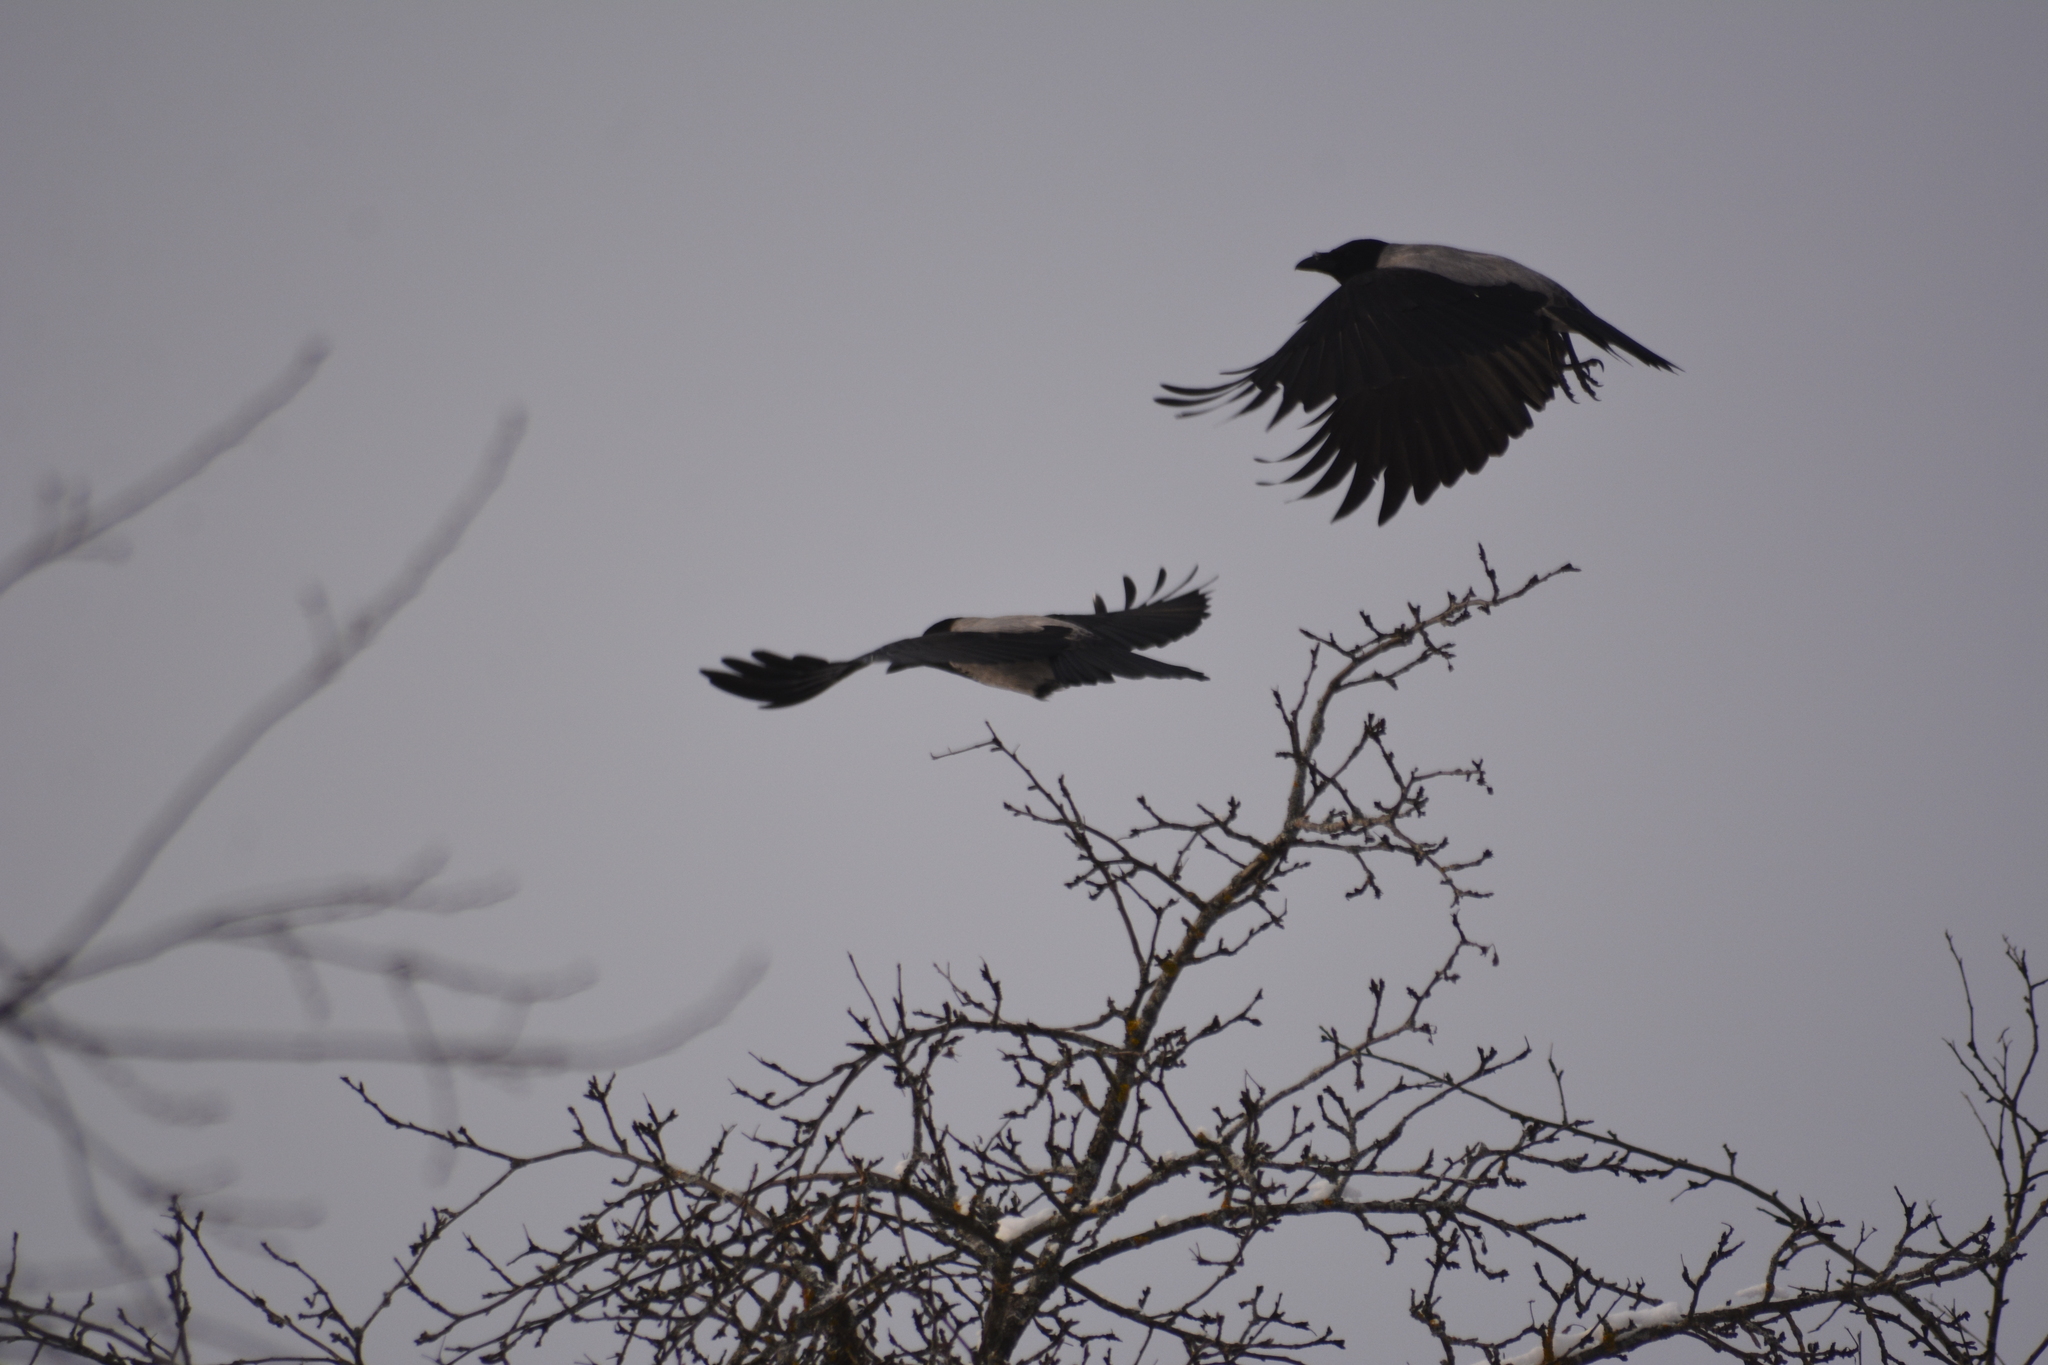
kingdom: Animalia
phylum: Chordata
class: Aves
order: Passeriformes
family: Corvidae
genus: Corvus
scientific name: Corvus cornix
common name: Hooded crow
